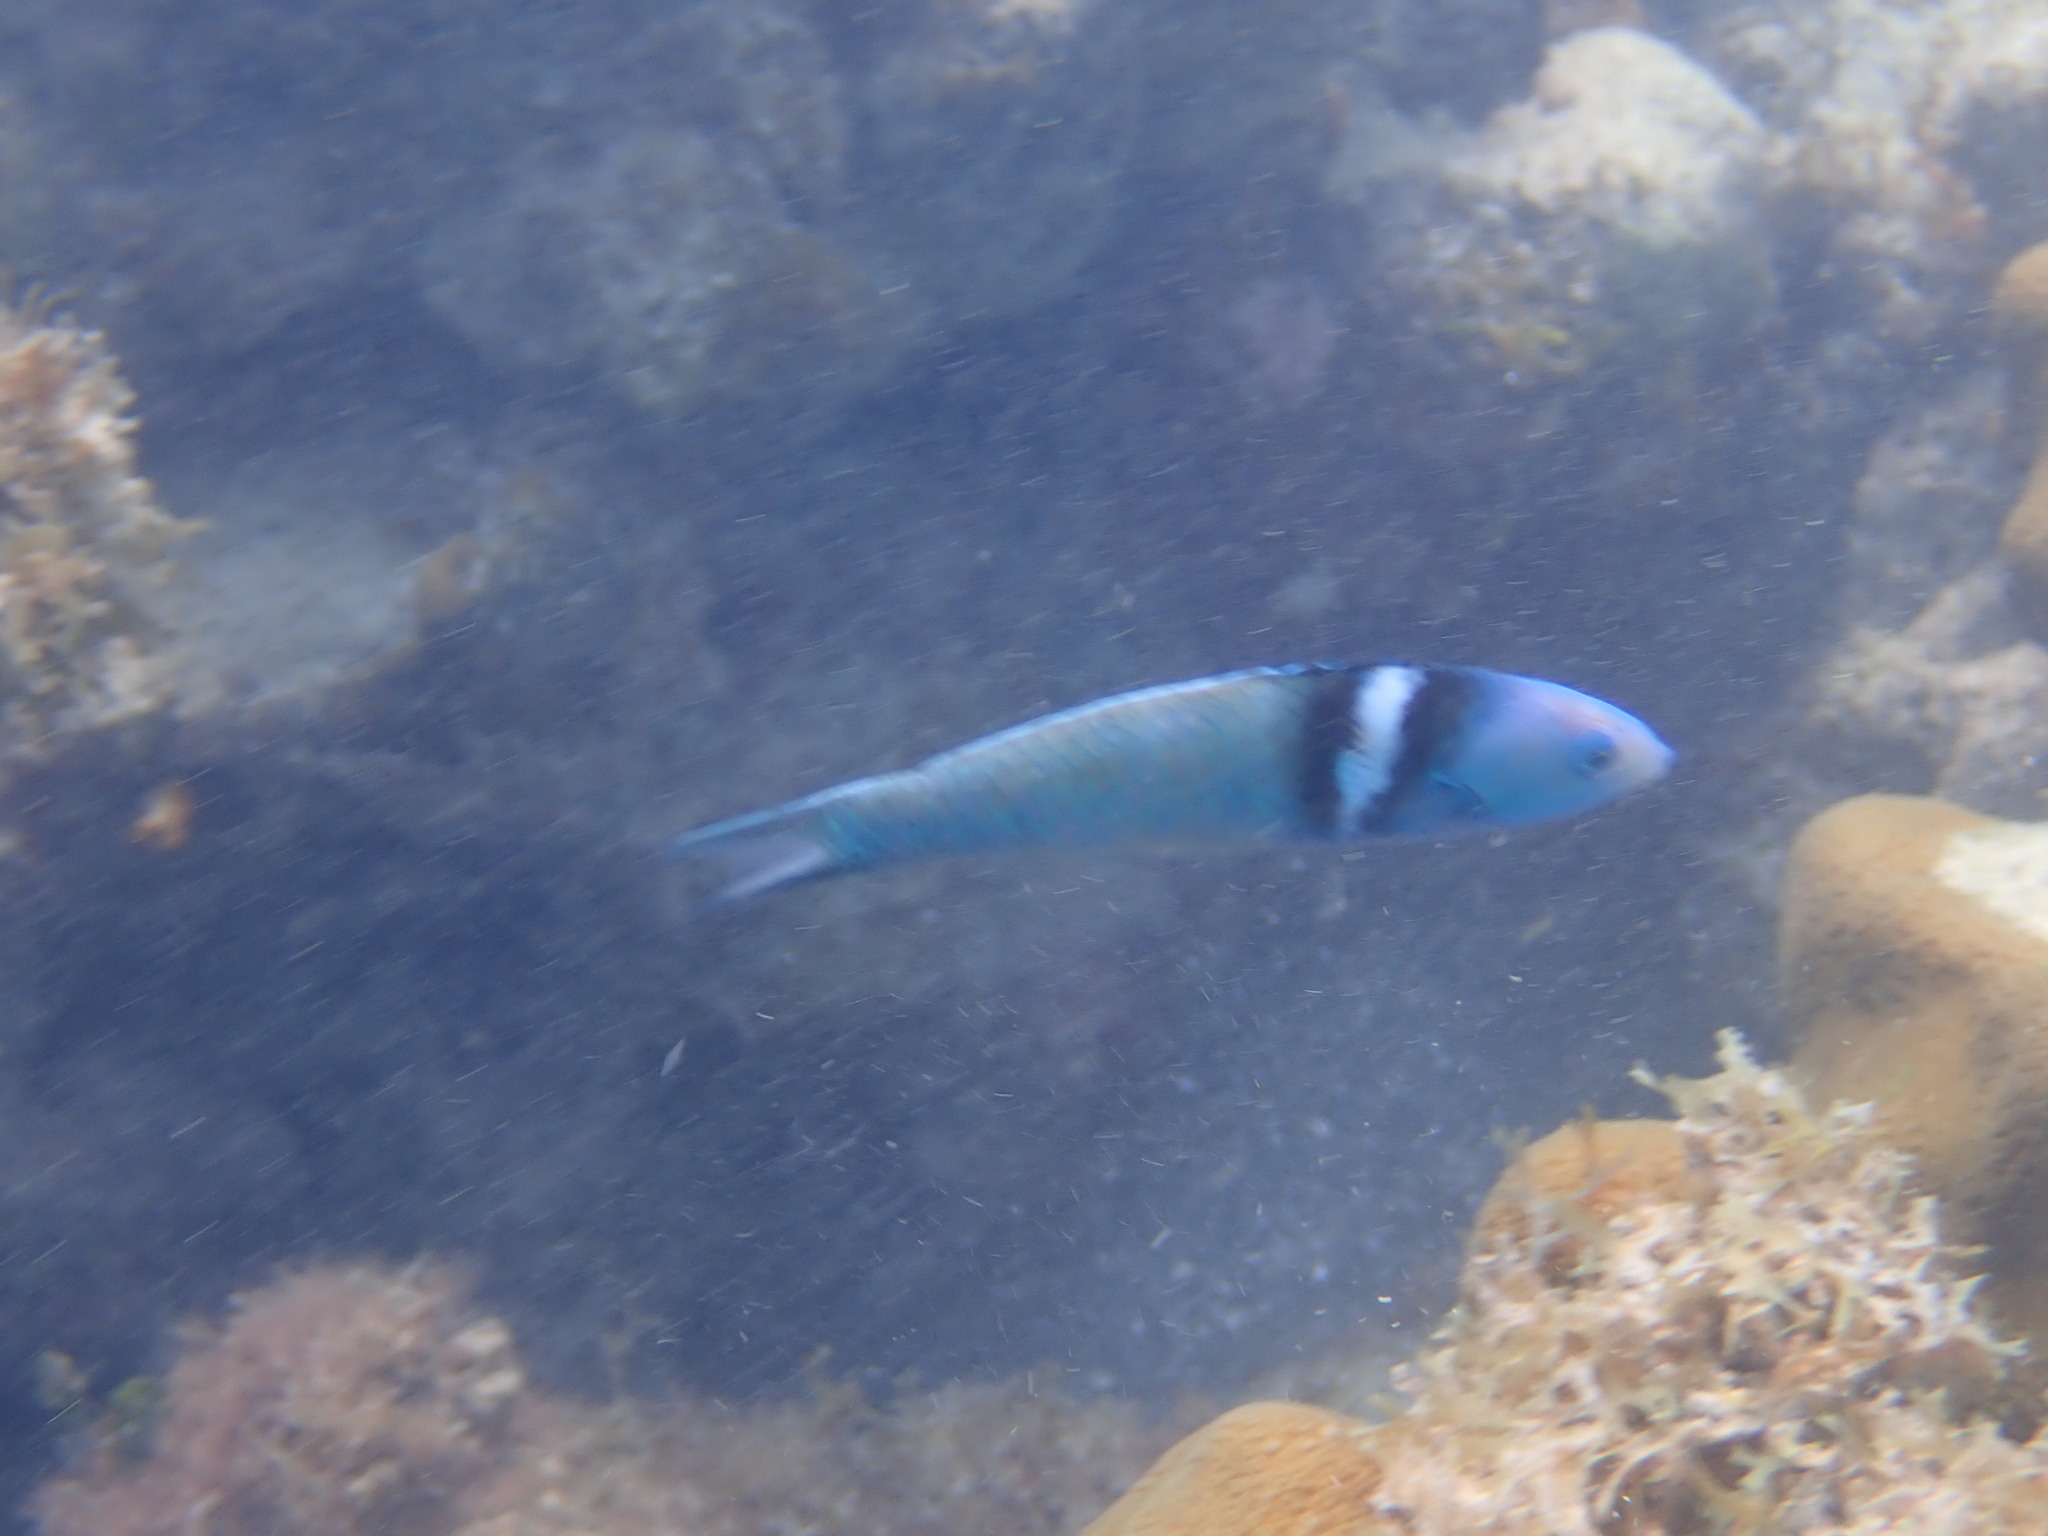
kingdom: Animalia
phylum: Chordata
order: Perciformes
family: Labridae
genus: Thalassoma
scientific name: Thalassoma bifasciatum
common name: Bluehead wrasse
